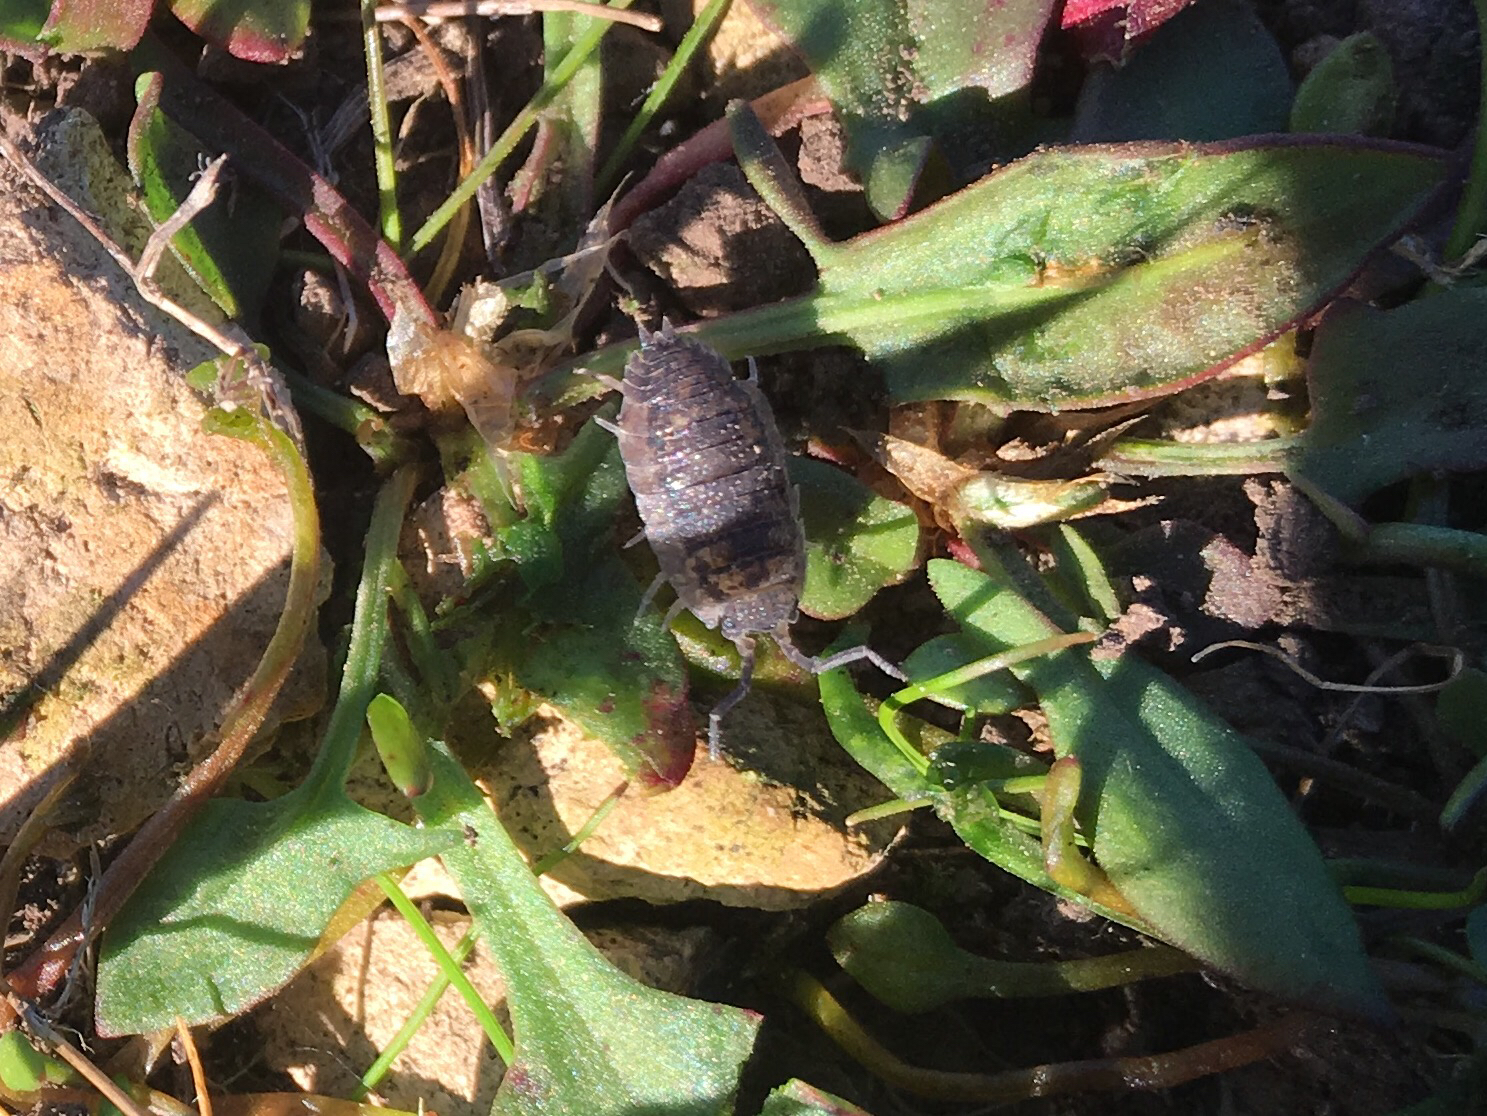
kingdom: Animalia
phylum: Arthropoda
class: Malacostraca
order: Isopoda
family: Porcellionidae
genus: Porcellio
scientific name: Porcellio scaber
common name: Common rough woodlouse
